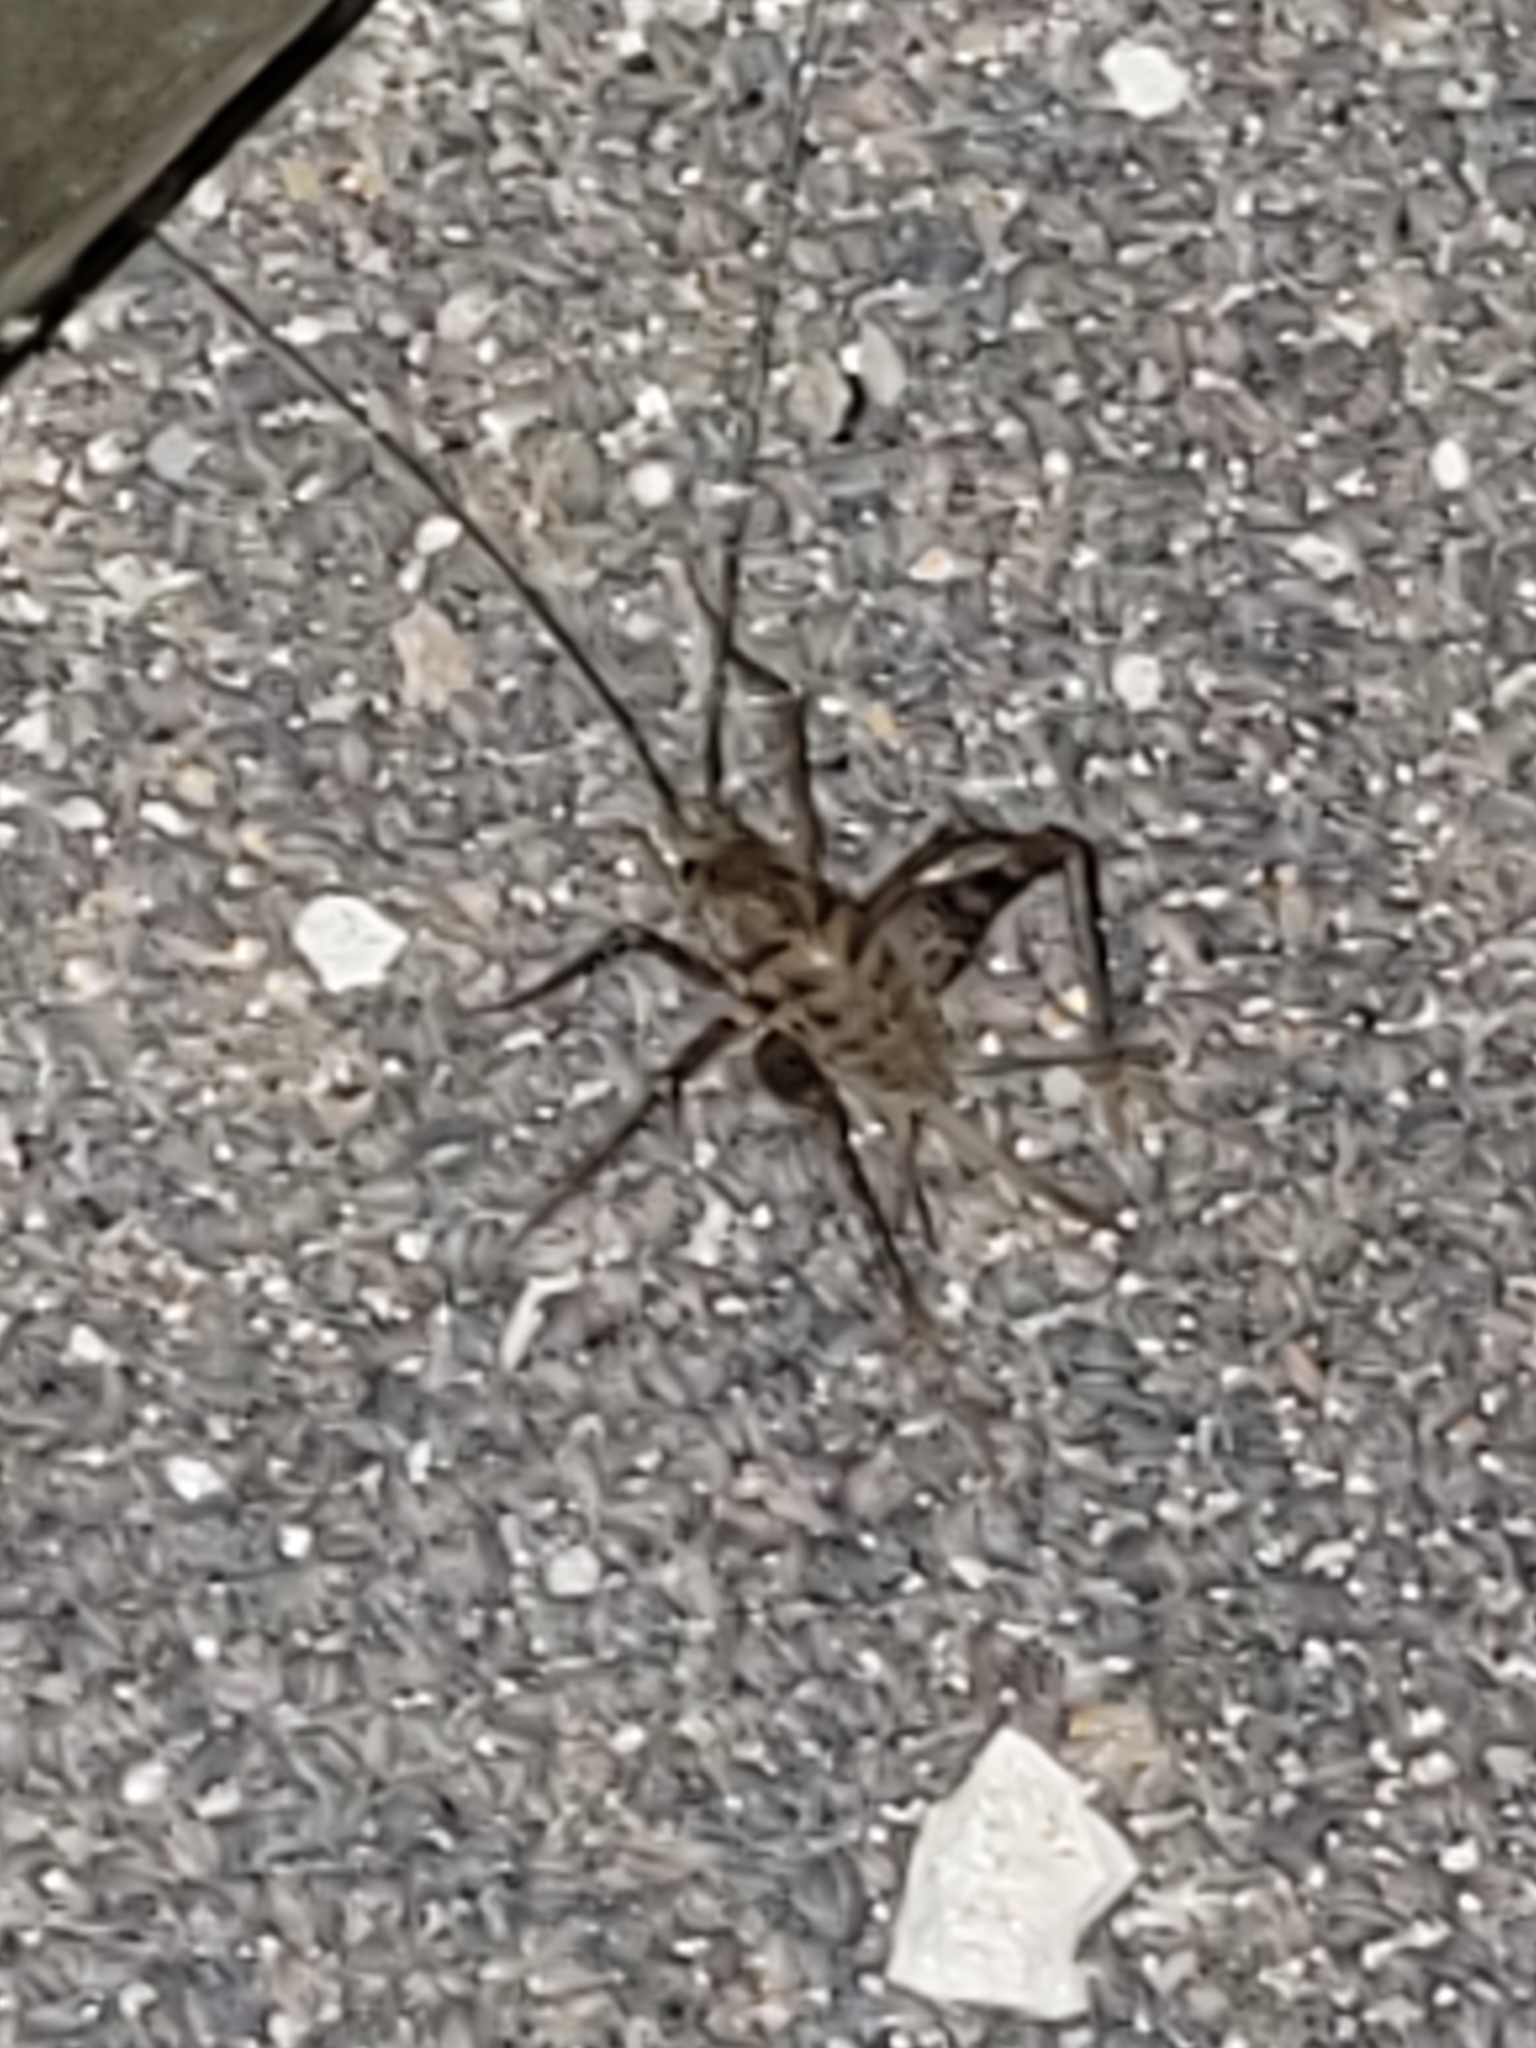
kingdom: Animalia
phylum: Arthropoda
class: Insecta
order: Orthoptera
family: Rhaphidophoridae
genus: Tachycines
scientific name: Tachycines asynamorus
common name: Greenhouse camel cricket
